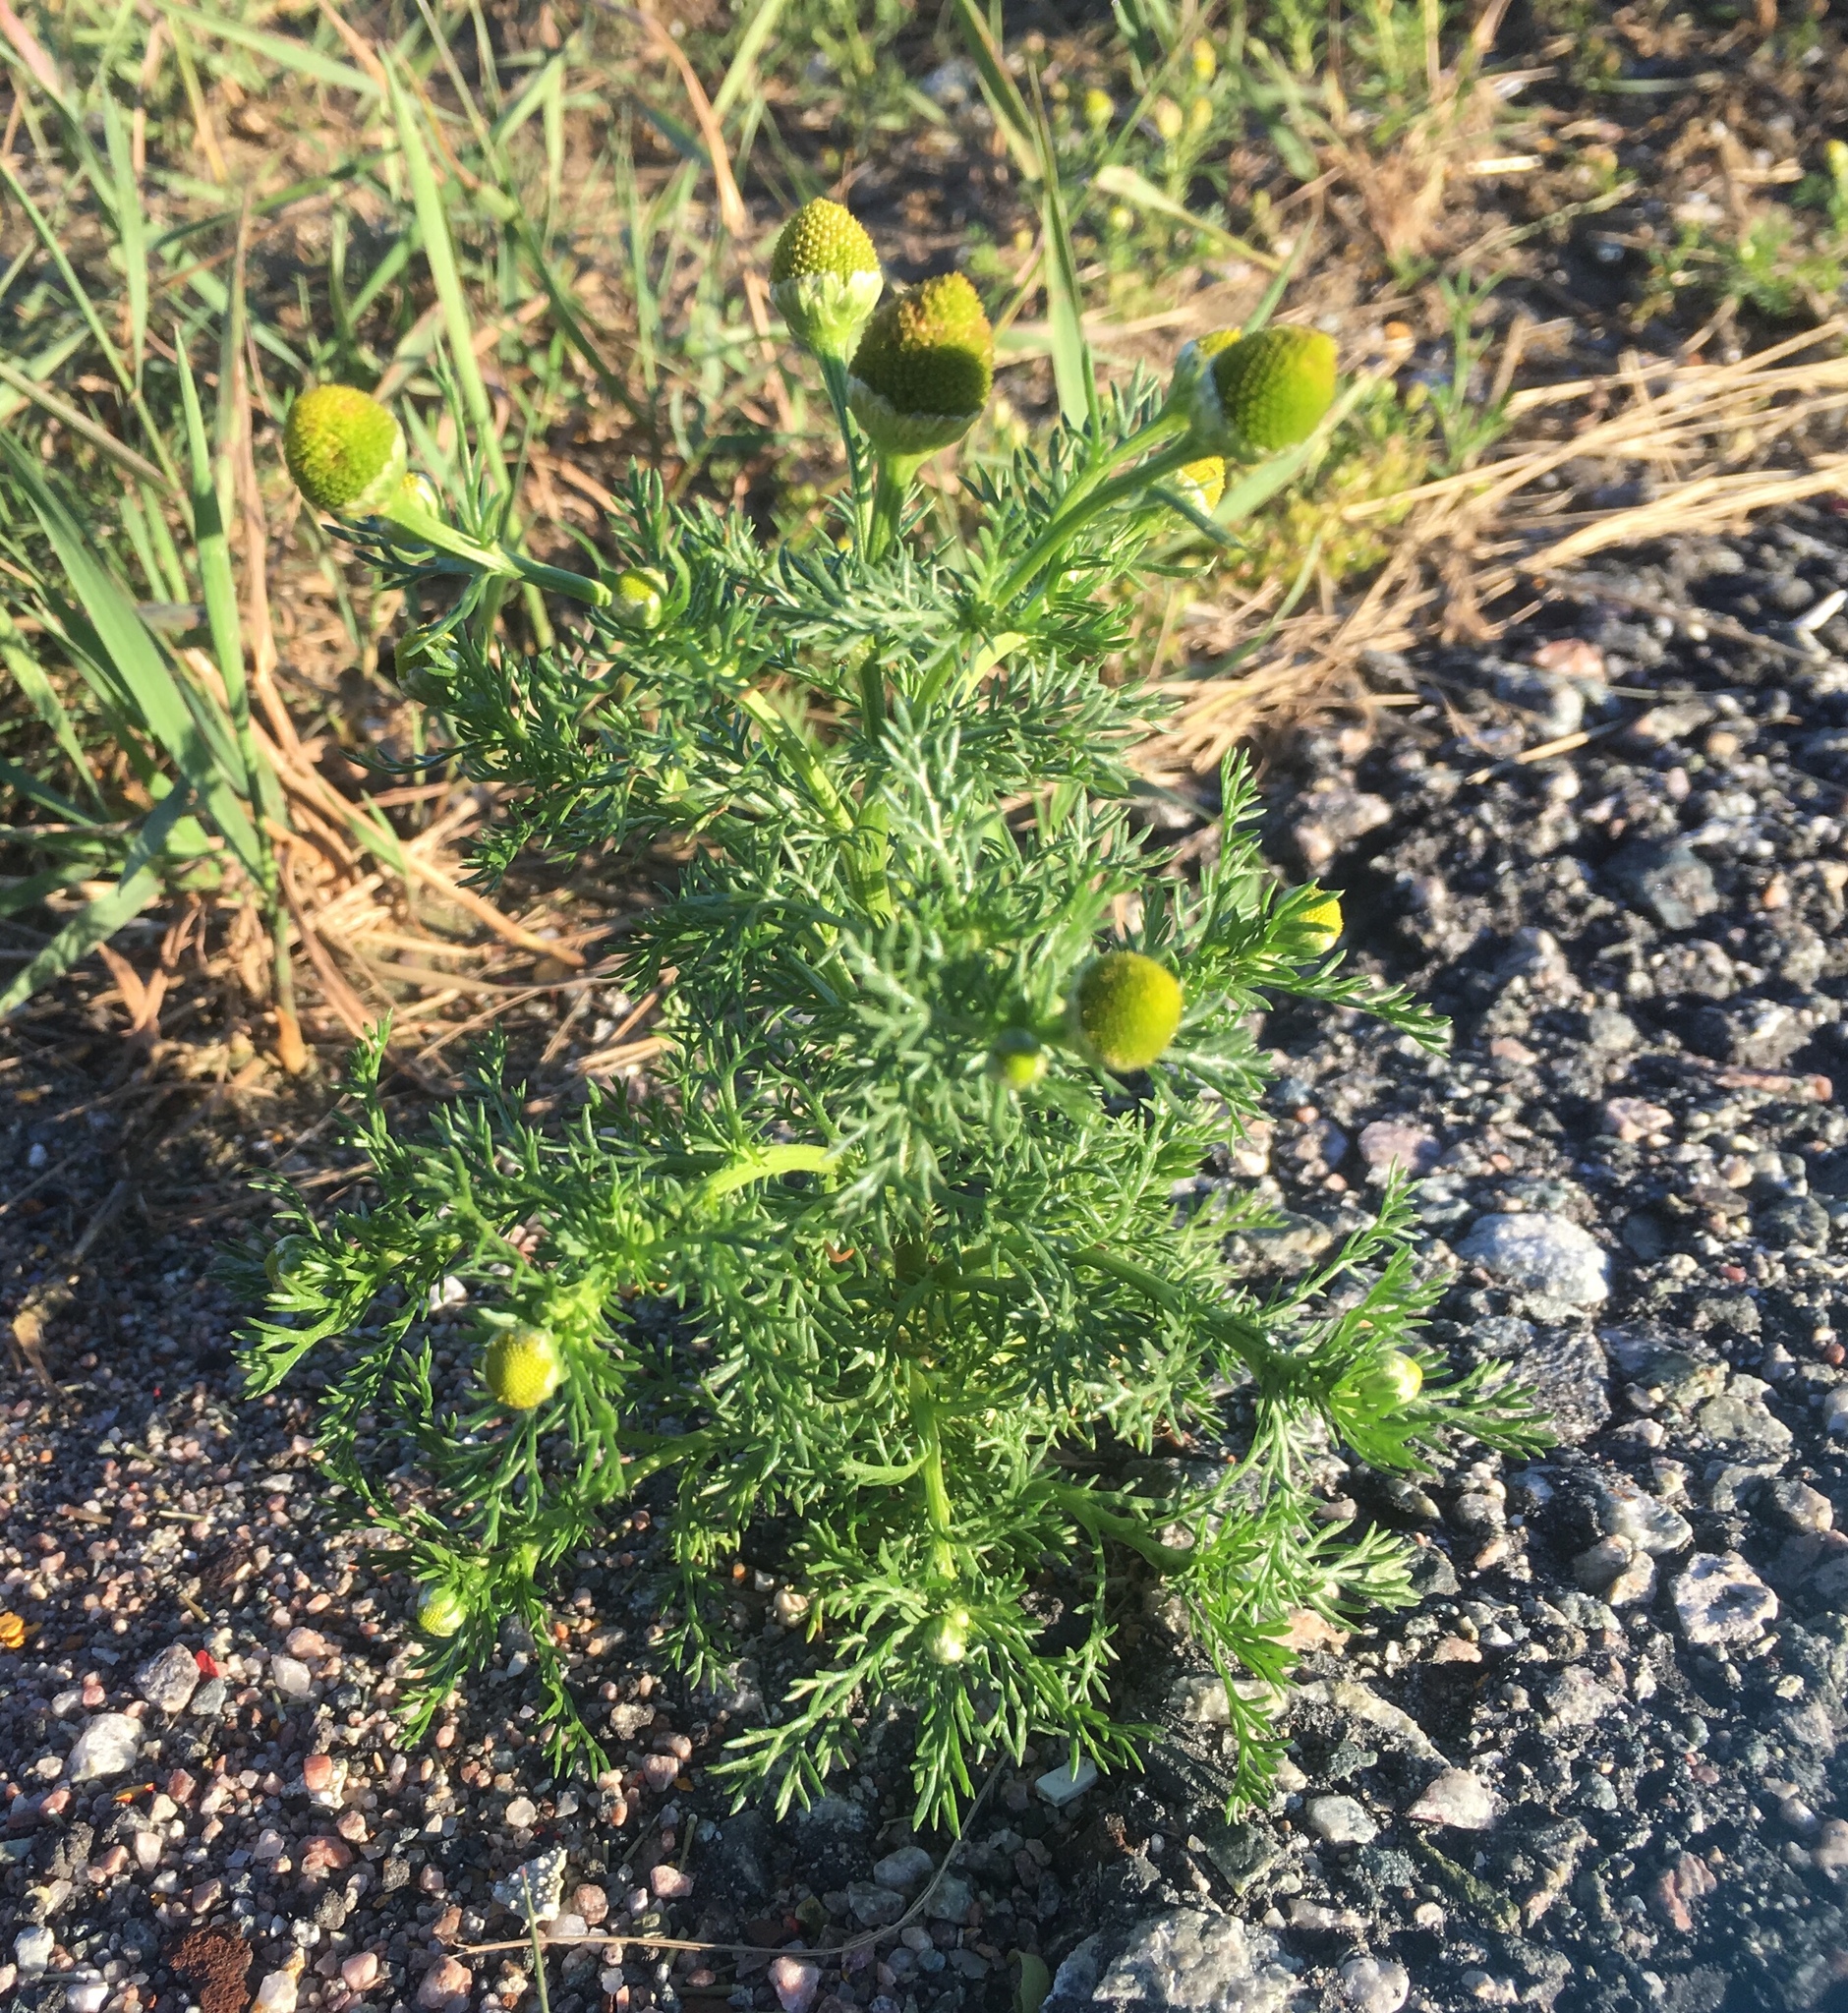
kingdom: Plantae
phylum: Tracheophyta
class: Magnoliopsida
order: Asterales
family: Asteraceae
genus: Matricaria
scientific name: Matricaria discoidea
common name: Disc mayweed
